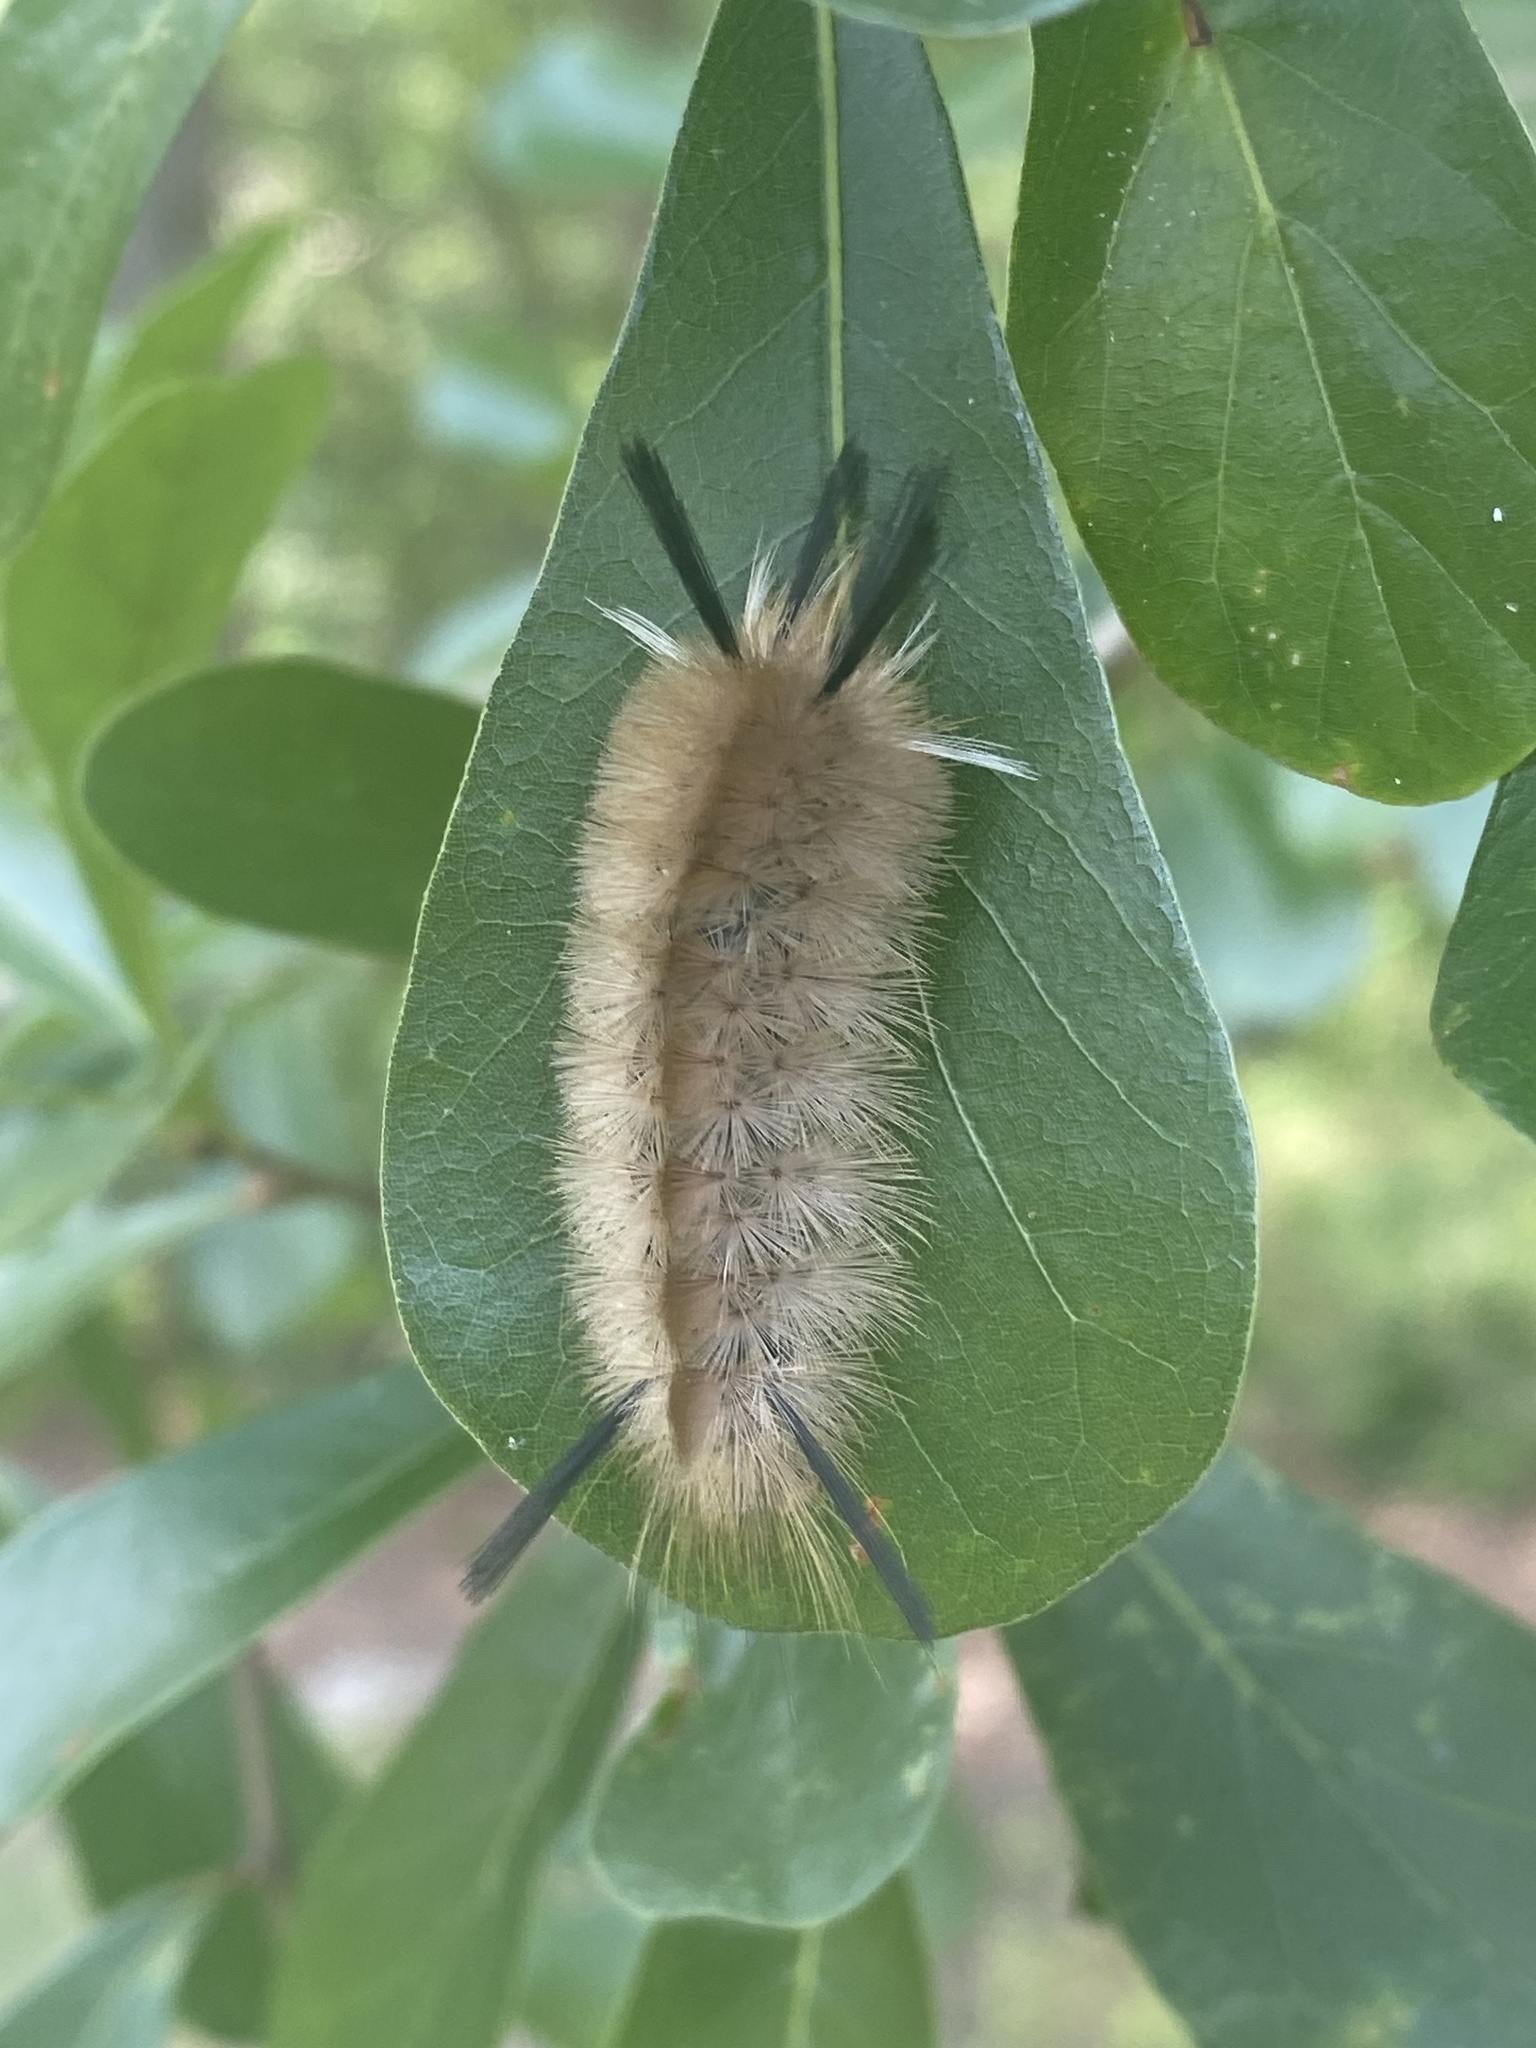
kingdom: Animalia
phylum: Arthropoda
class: Insecta
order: Lepidoptera
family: Erebidae
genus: Halysidota
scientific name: Halysidota tessellaris
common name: Banded tussock moth
